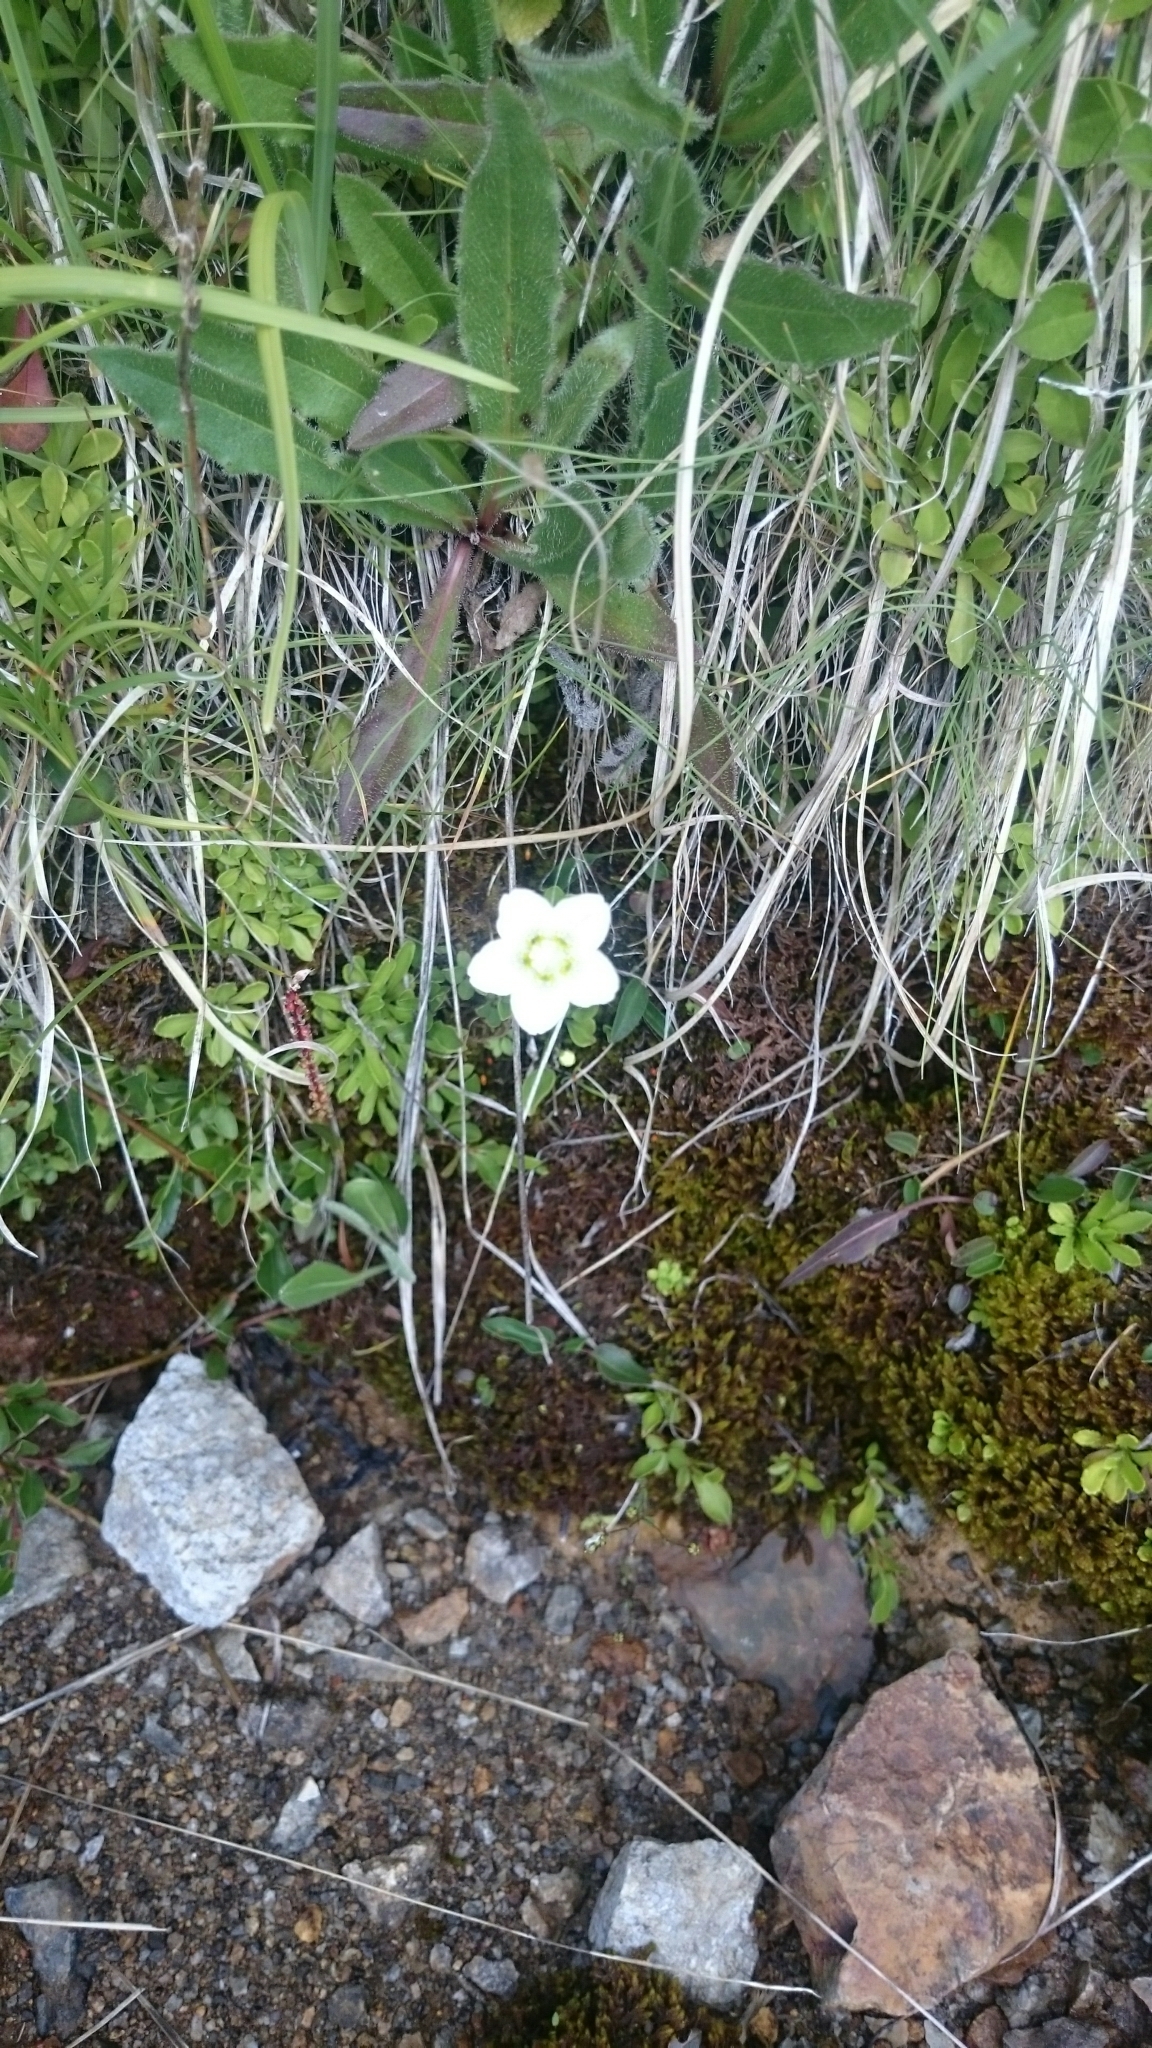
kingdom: Plantae
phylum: Tracheophyta
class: Magnoliopsida
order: Celastrales
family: Parnassiaceae
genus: Parnassia
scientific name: Parnassia palustris
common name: Grass-of-parnassus
